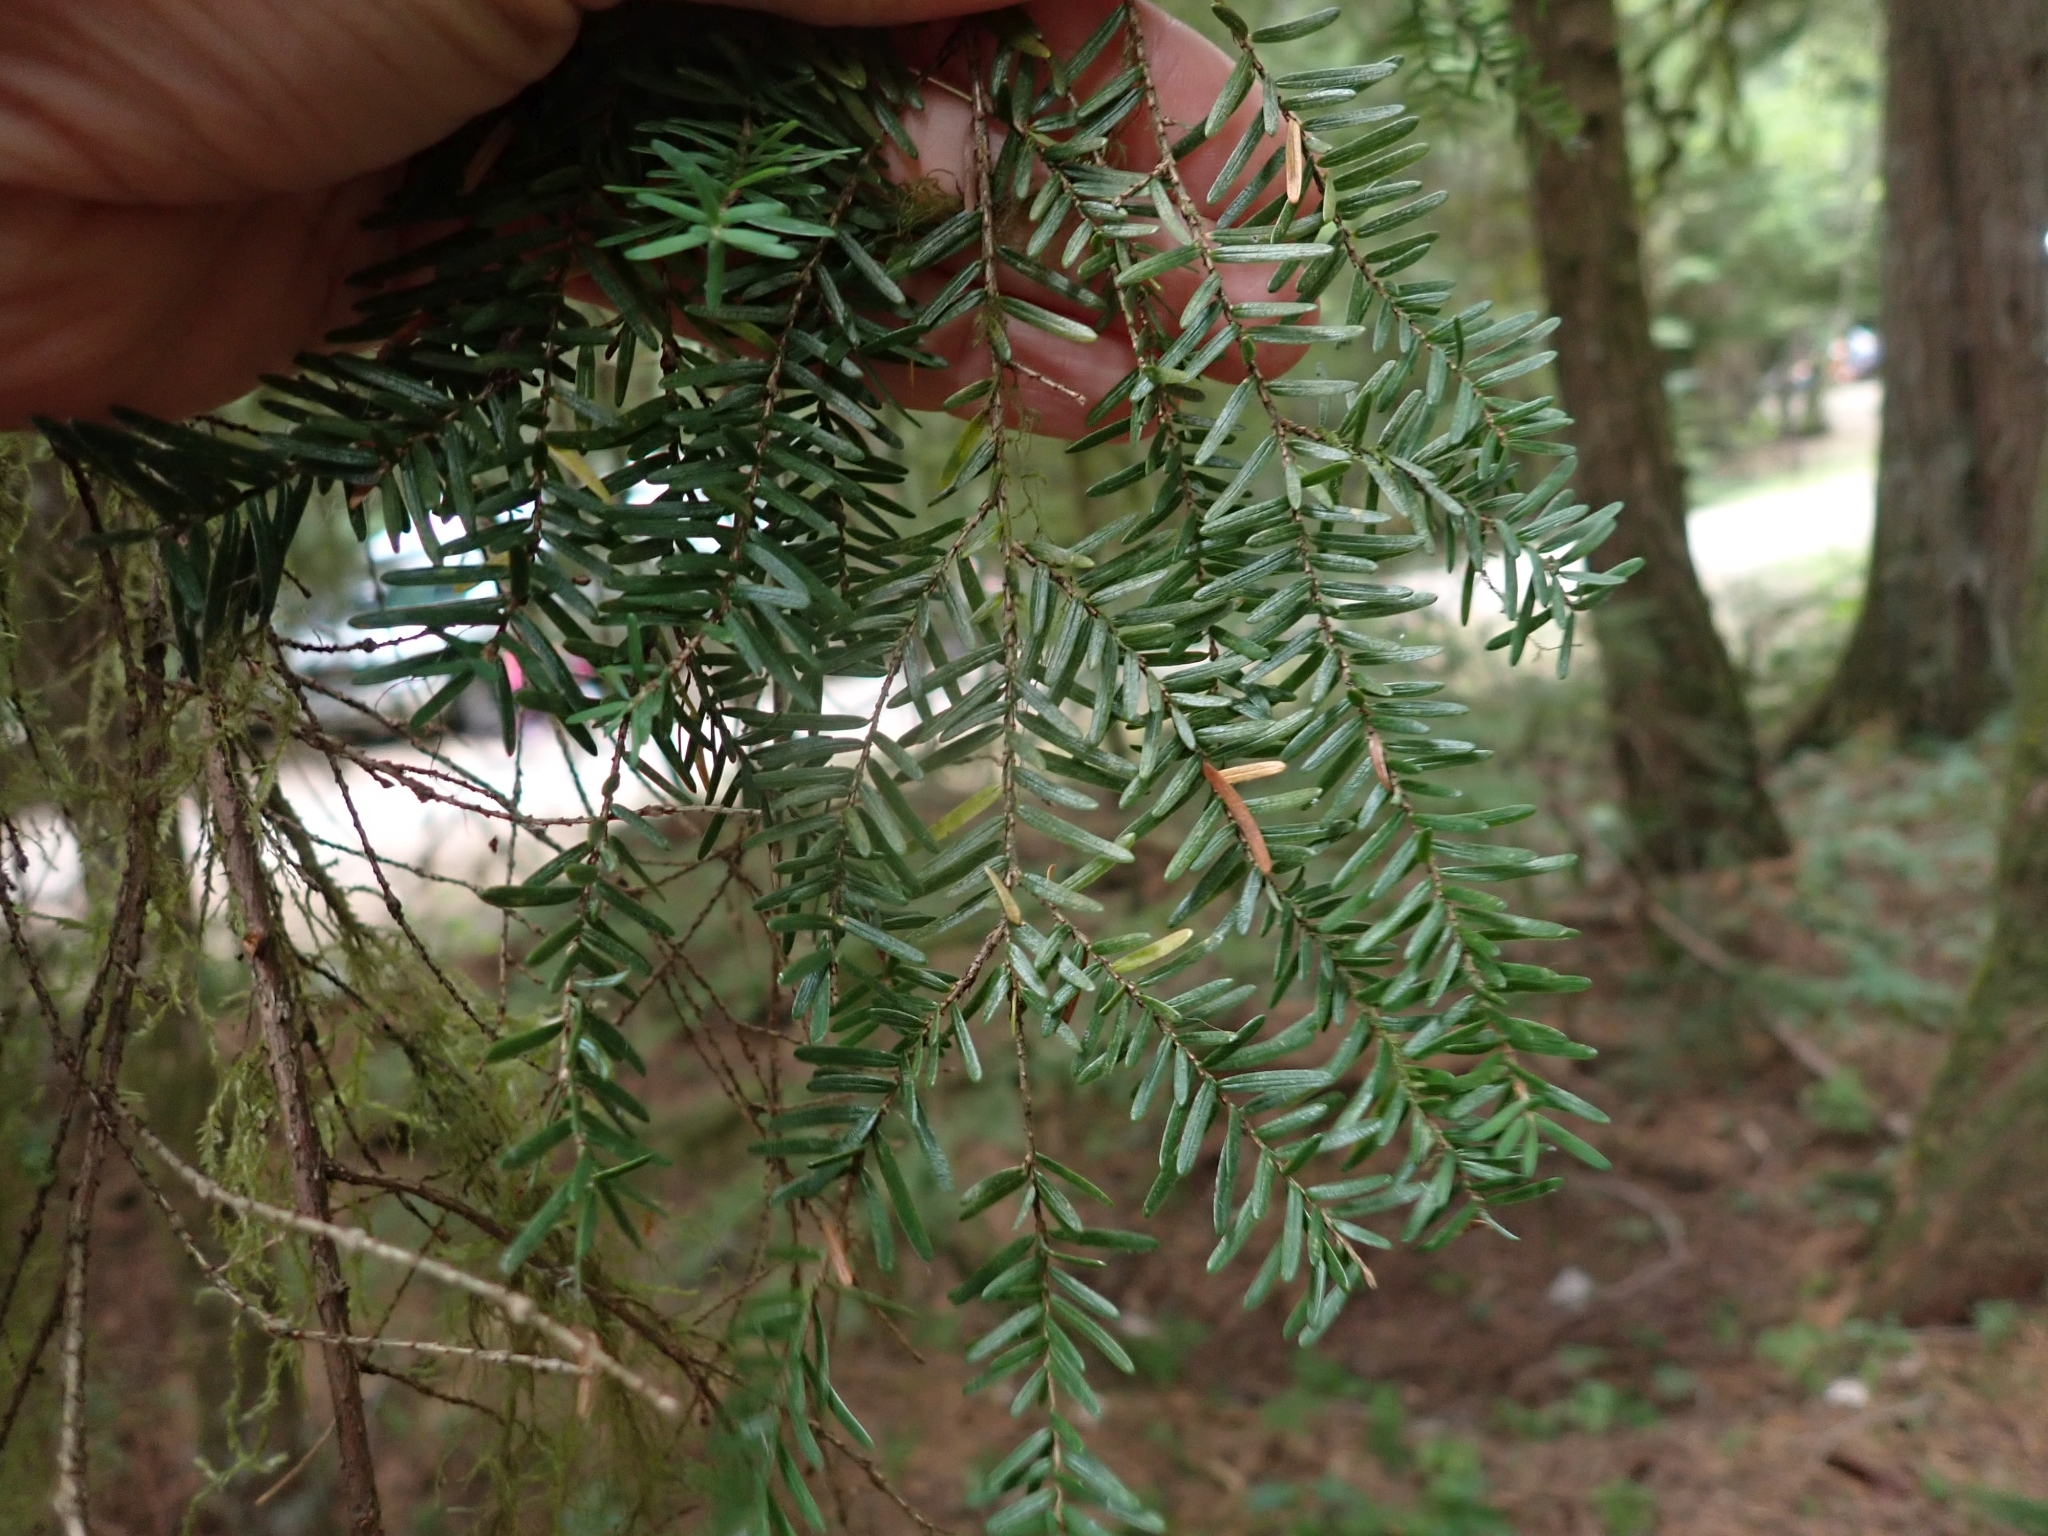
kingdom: Plantae
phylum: Tracheophyta
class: Pinopsida
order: Pinales
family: Pinaceae
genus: Tsuga
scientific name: Tsuga heterophylla
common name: Western hemlock
